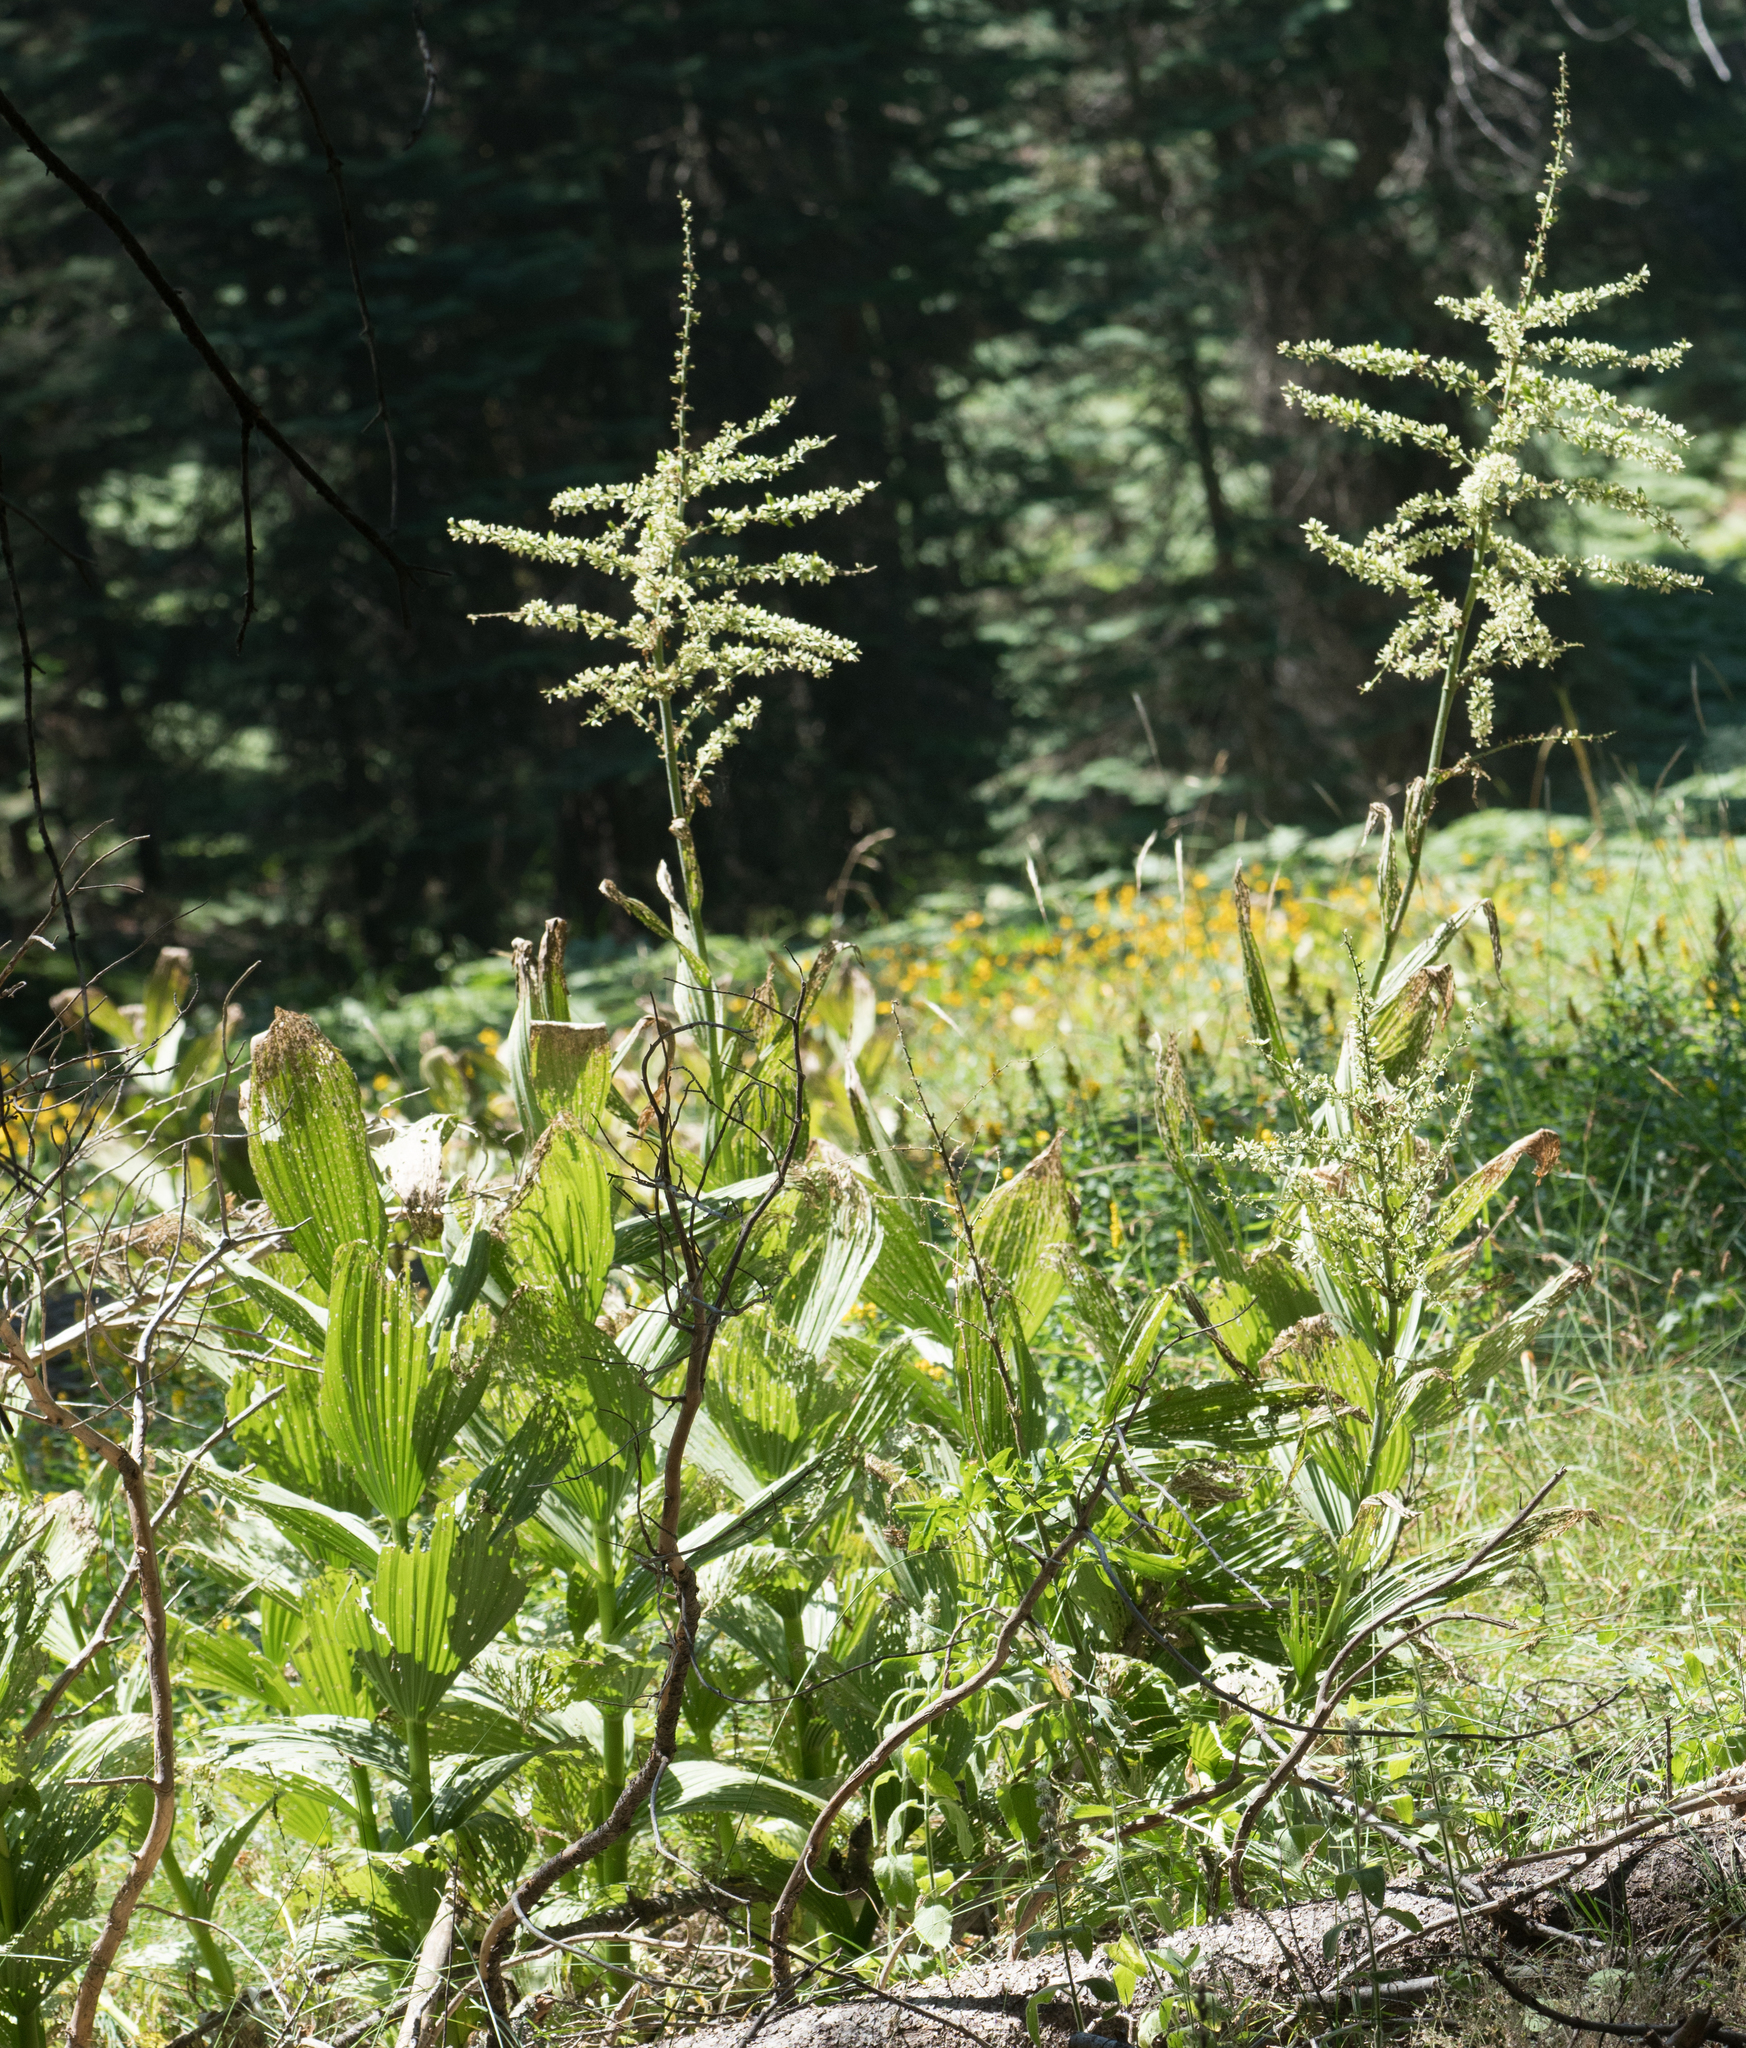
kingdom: Plantae
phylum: Tracheophyta
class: Liliopsida
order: Liliales
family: Melanthiaceae
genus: Veratrum
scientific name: Veratrum californicum
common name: California veratrum
